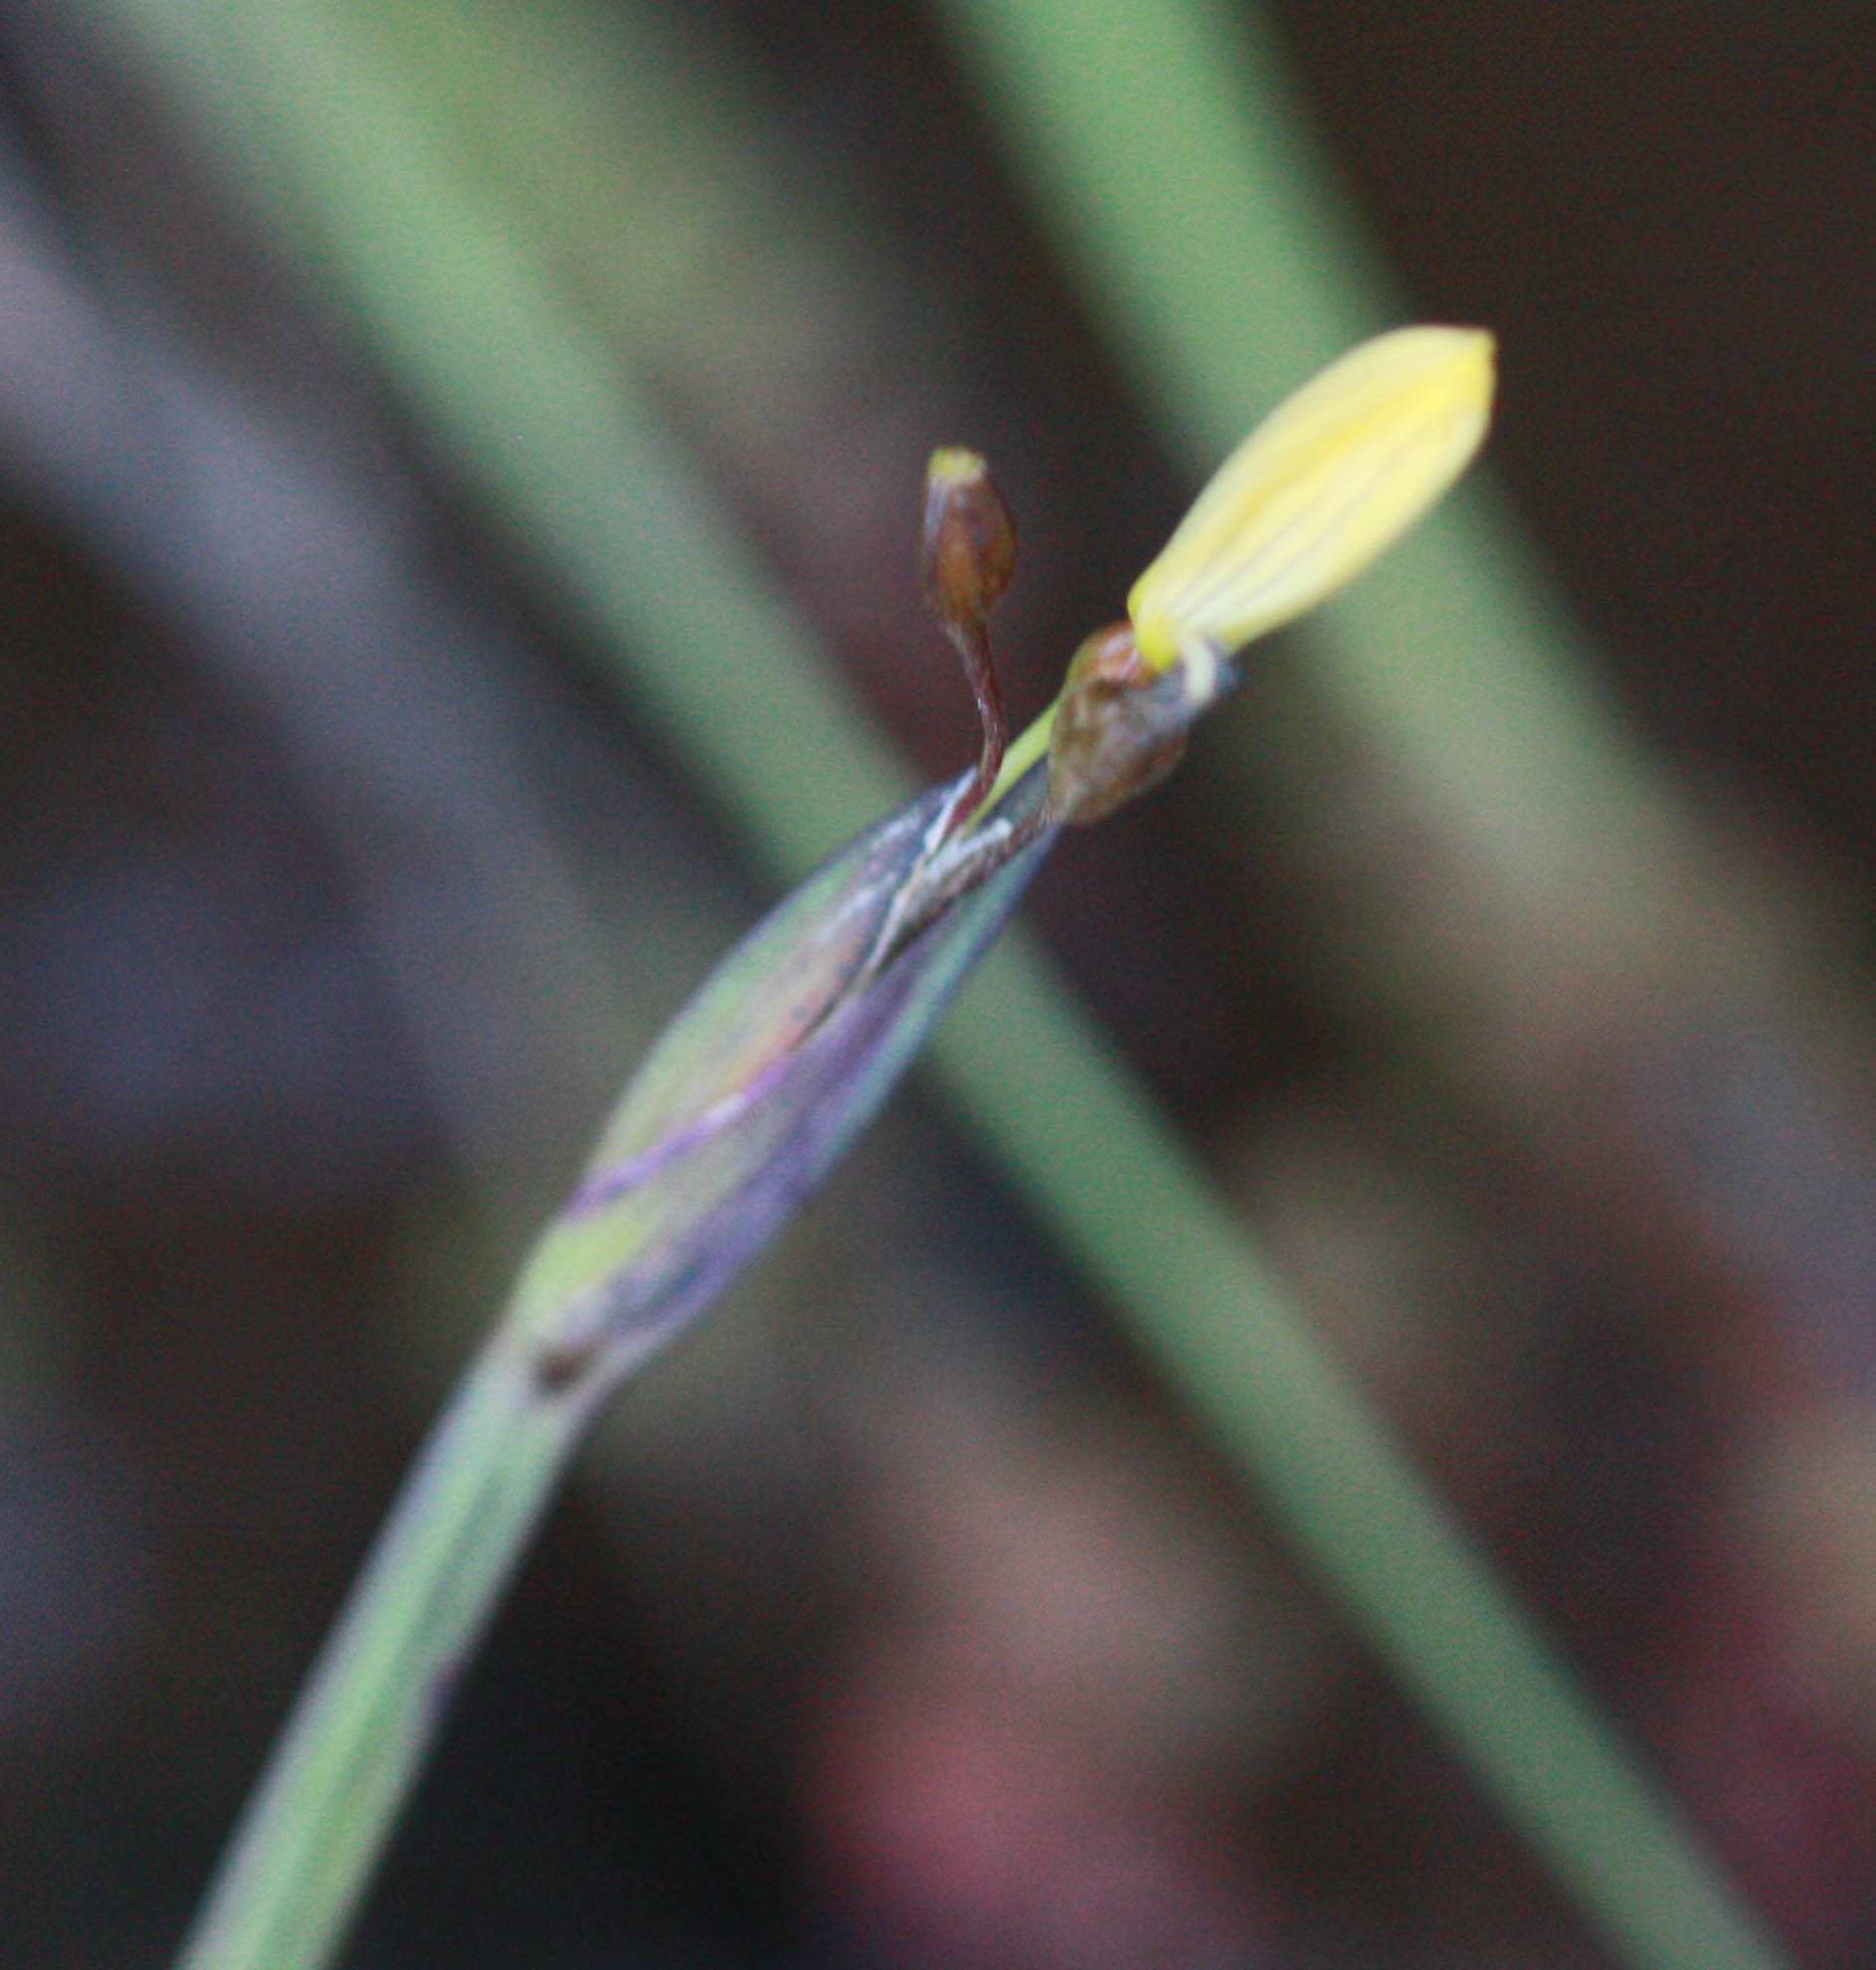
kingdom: Plantae
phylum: Tracheophyta
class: Liliopsida
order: Asparagales
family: Iridaceae
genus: Sisyrinchium
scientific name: Sisyrinchium californicum
